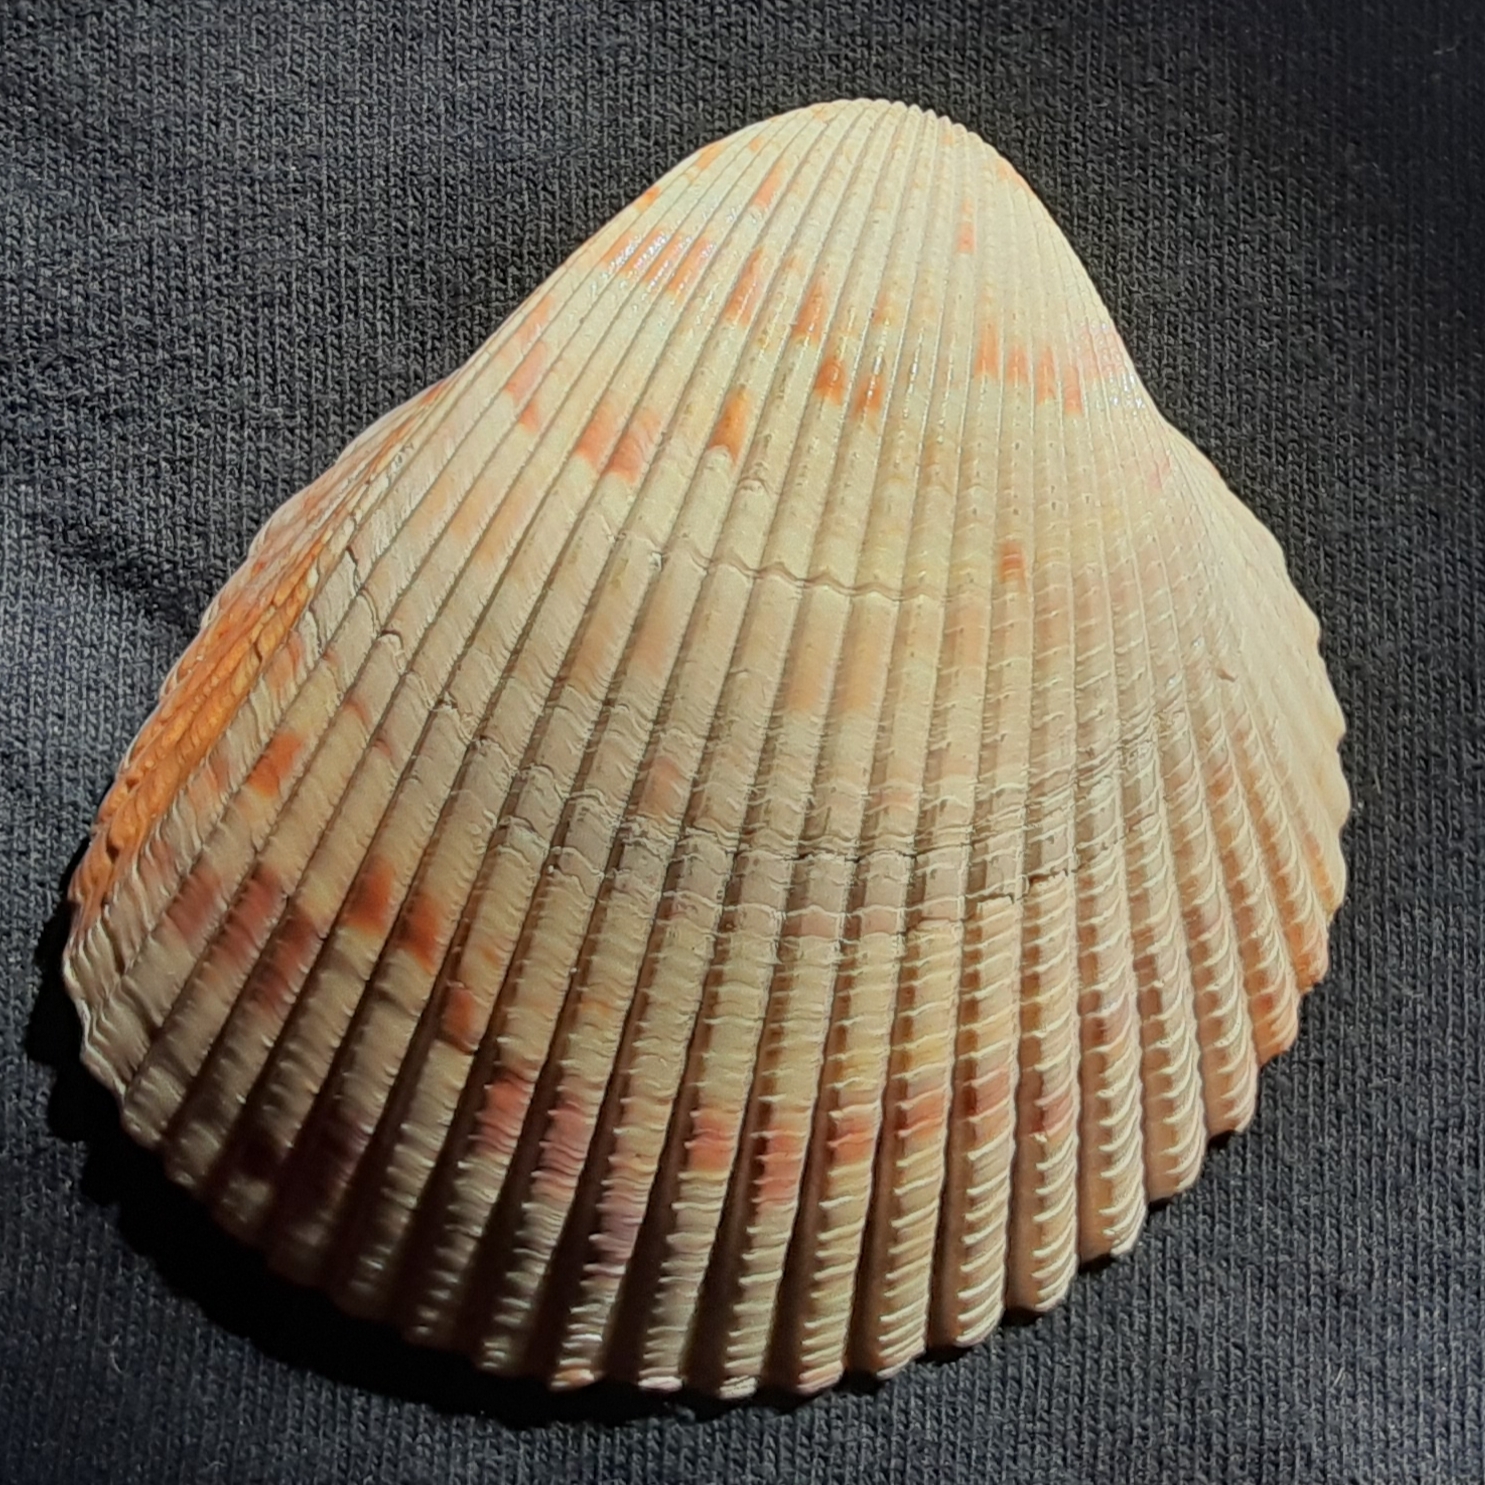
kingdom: Animalia
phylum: Mollusca
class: Bivalvia
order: Cardiida
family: Cardiidae
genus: Dinocardium
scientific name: Dinocardium robustum
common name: Atlantic giant cockle
